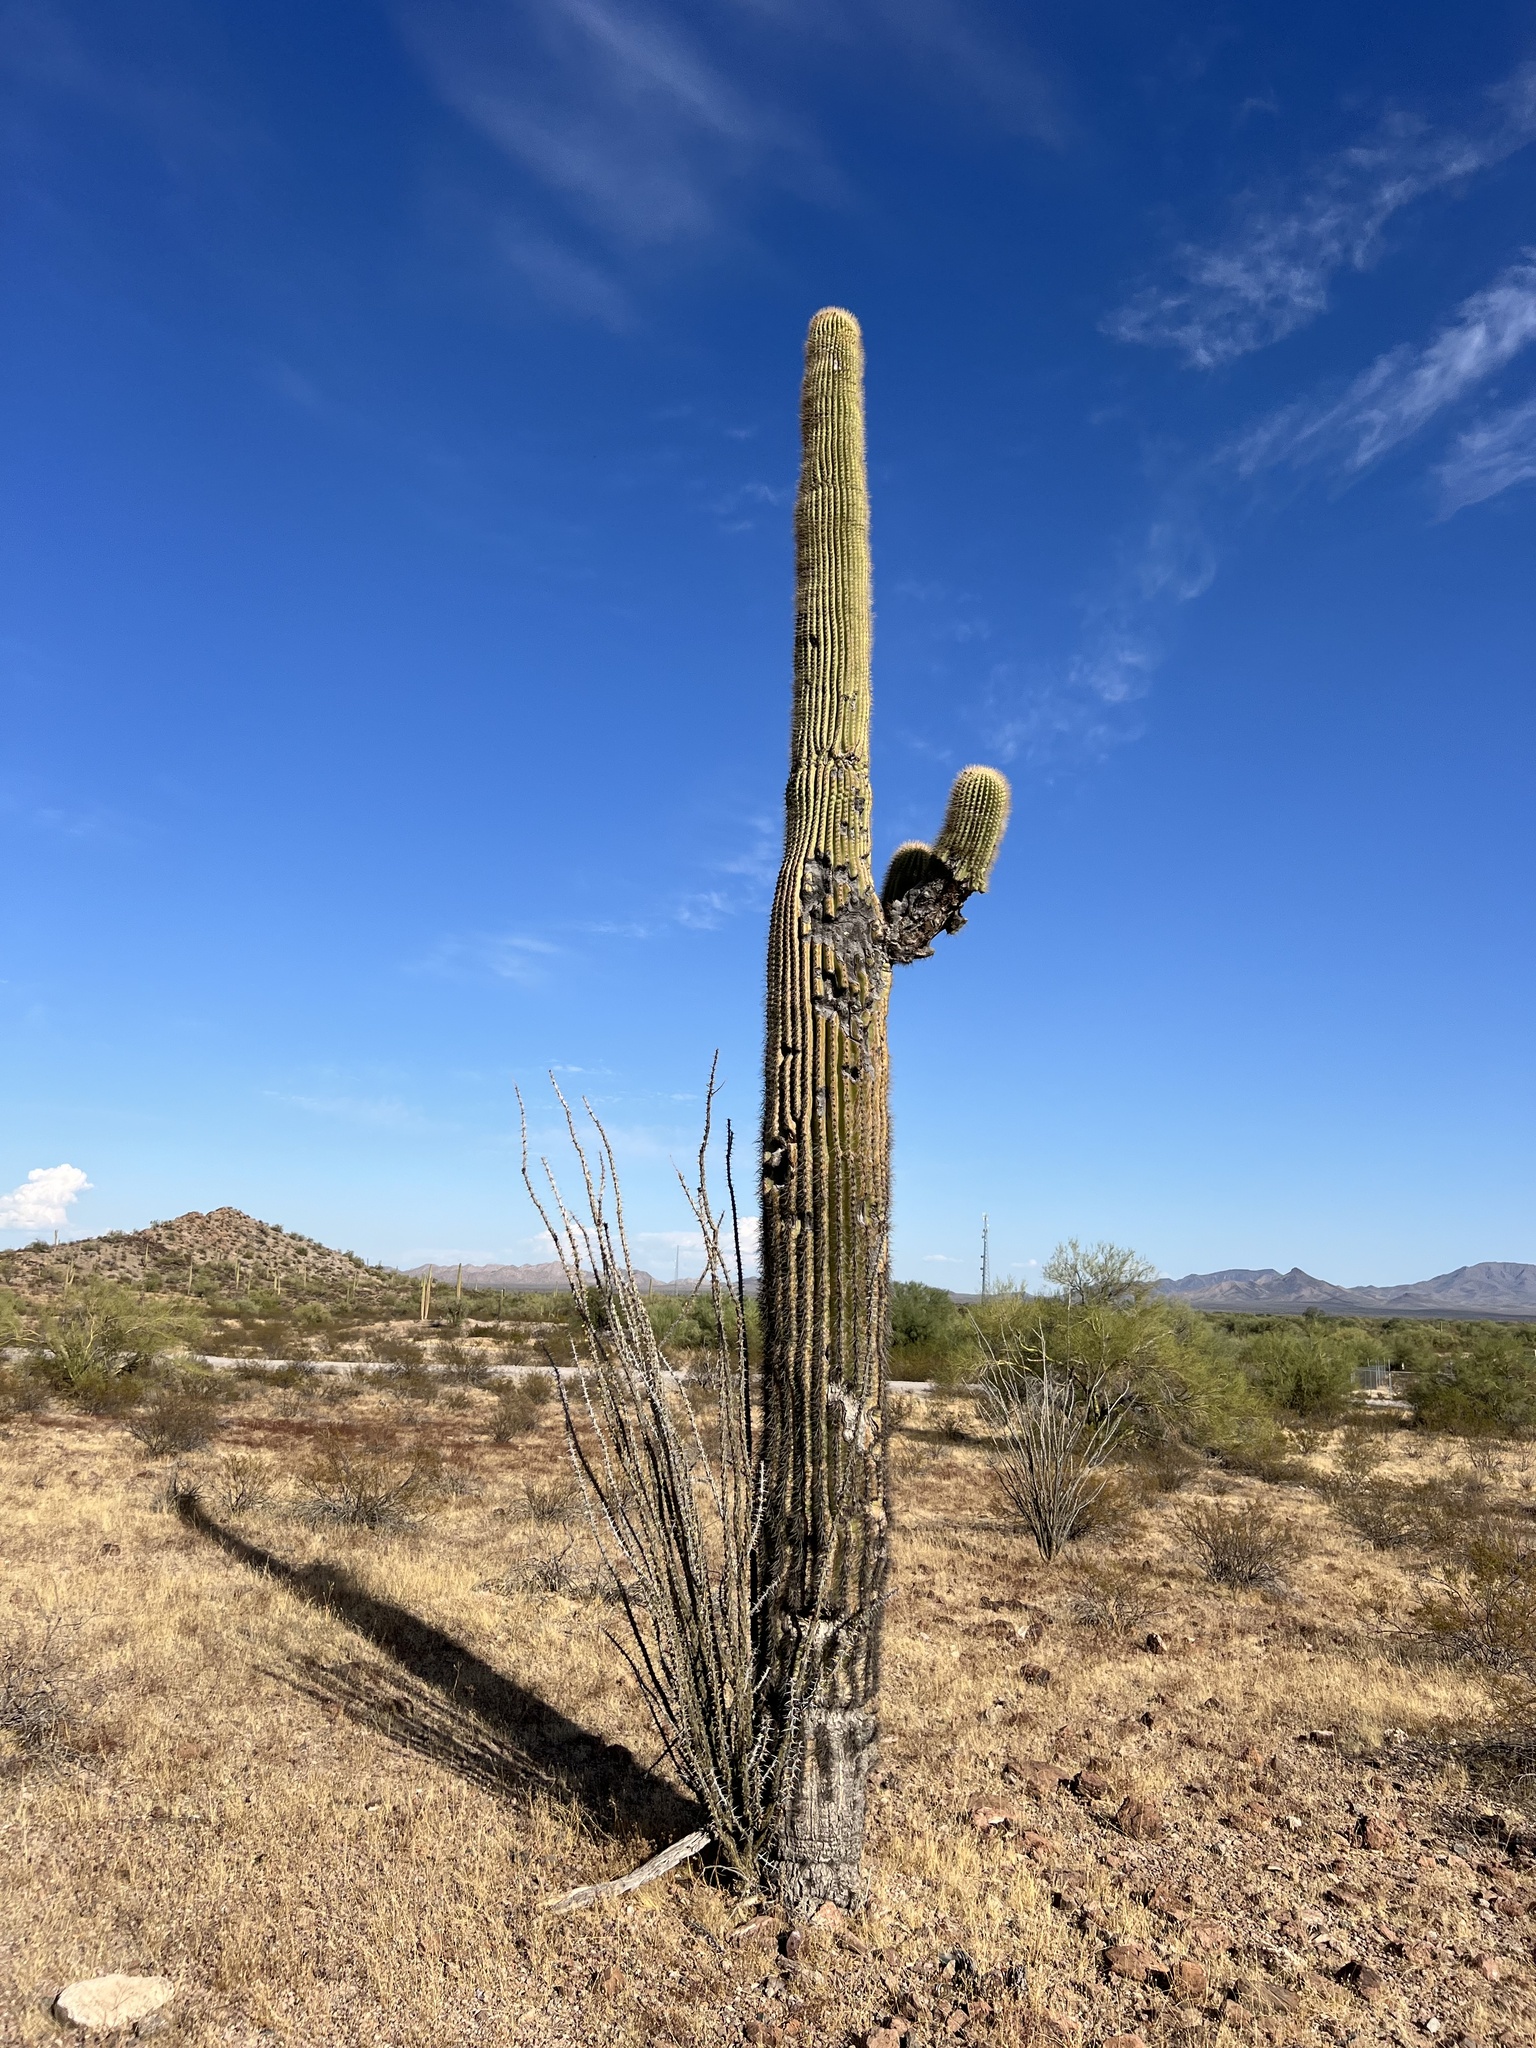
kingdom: Plantae
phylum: Tracheophyta
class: Magnoliopsida
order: Caryophyllales
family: Cactaceae
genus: Carnegiea
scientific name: Carnegiea gigantea
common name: Saguaro
